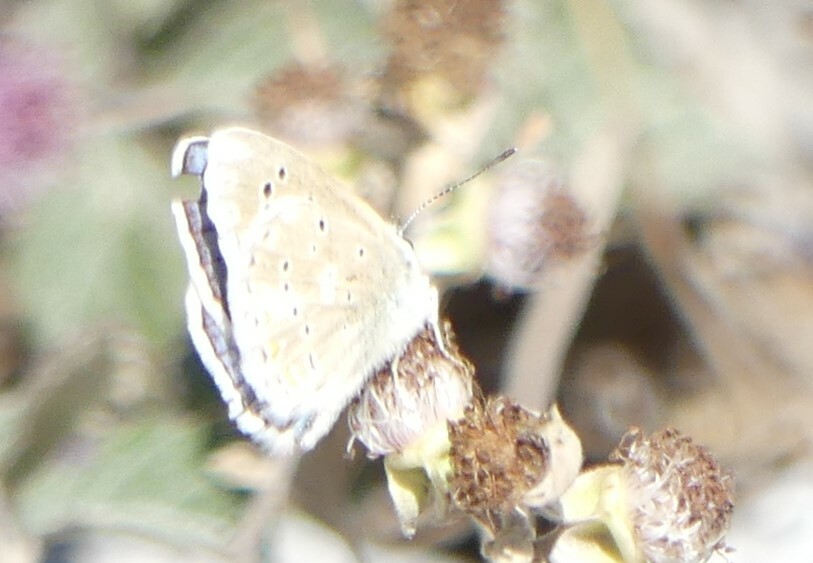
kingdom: Animalia
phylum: Arthropoda
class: Insecta
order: Lepidoptera
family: Lycaenidae
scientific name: Lycaenidae
